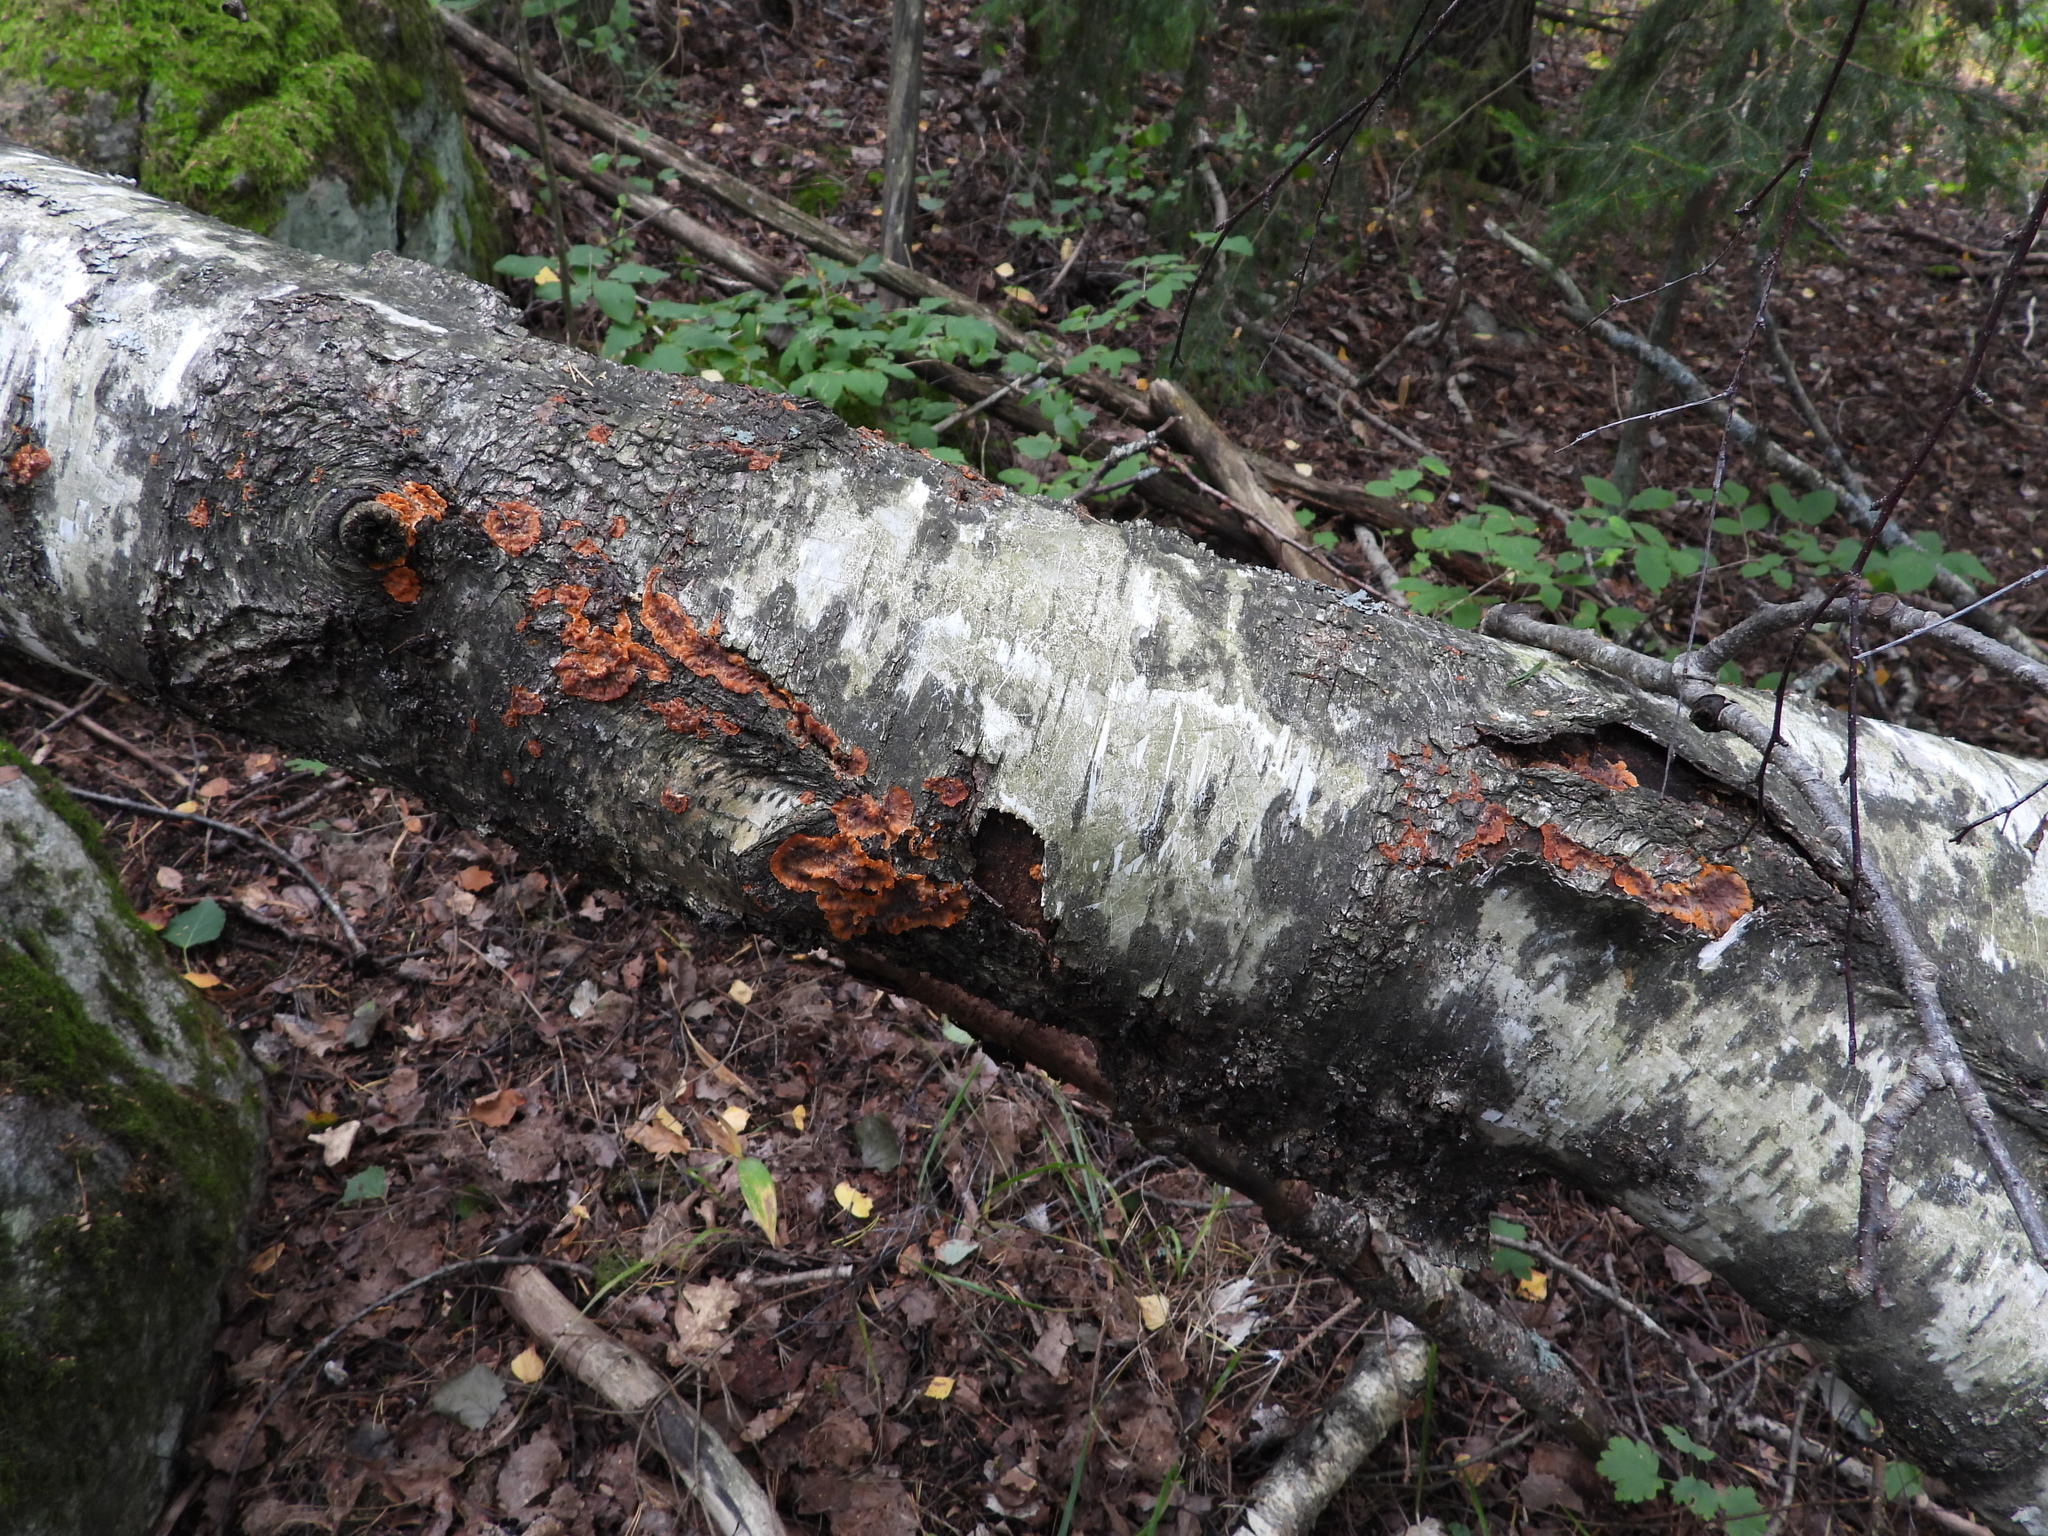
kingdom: Fungi
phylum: Basidiomycota
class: Agaricomycetes
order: Polyporales
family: Meruliaceae
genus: Phlebia
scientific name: Phlebia radiata
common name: Wrinkled crust
